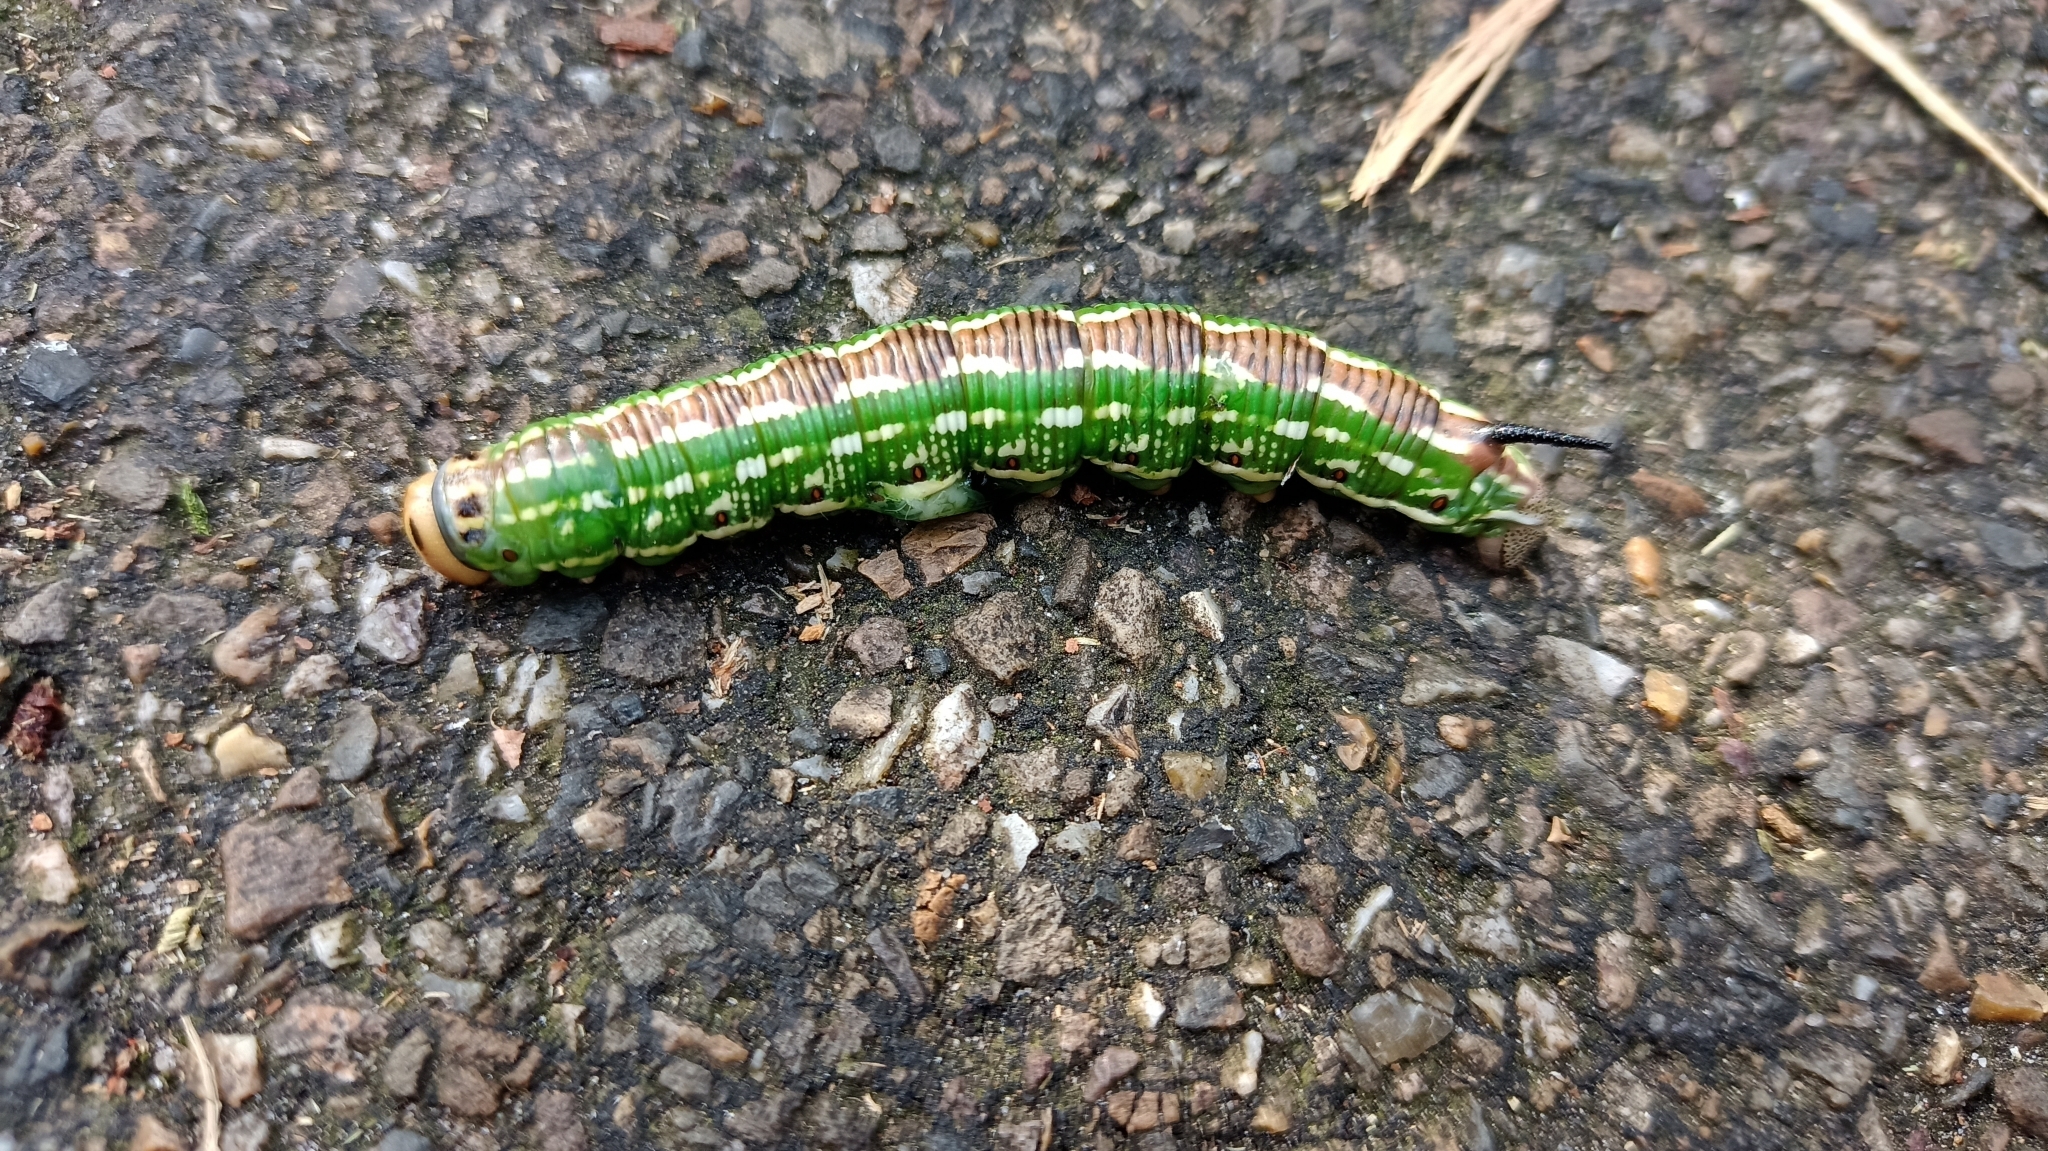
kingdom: Animalia
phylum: Arthropoda
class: Insecta
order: Lepidoptera
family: Sphingidae
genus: Sphinx
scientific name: Sphinx pinastri
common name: Pine hawk-moth
